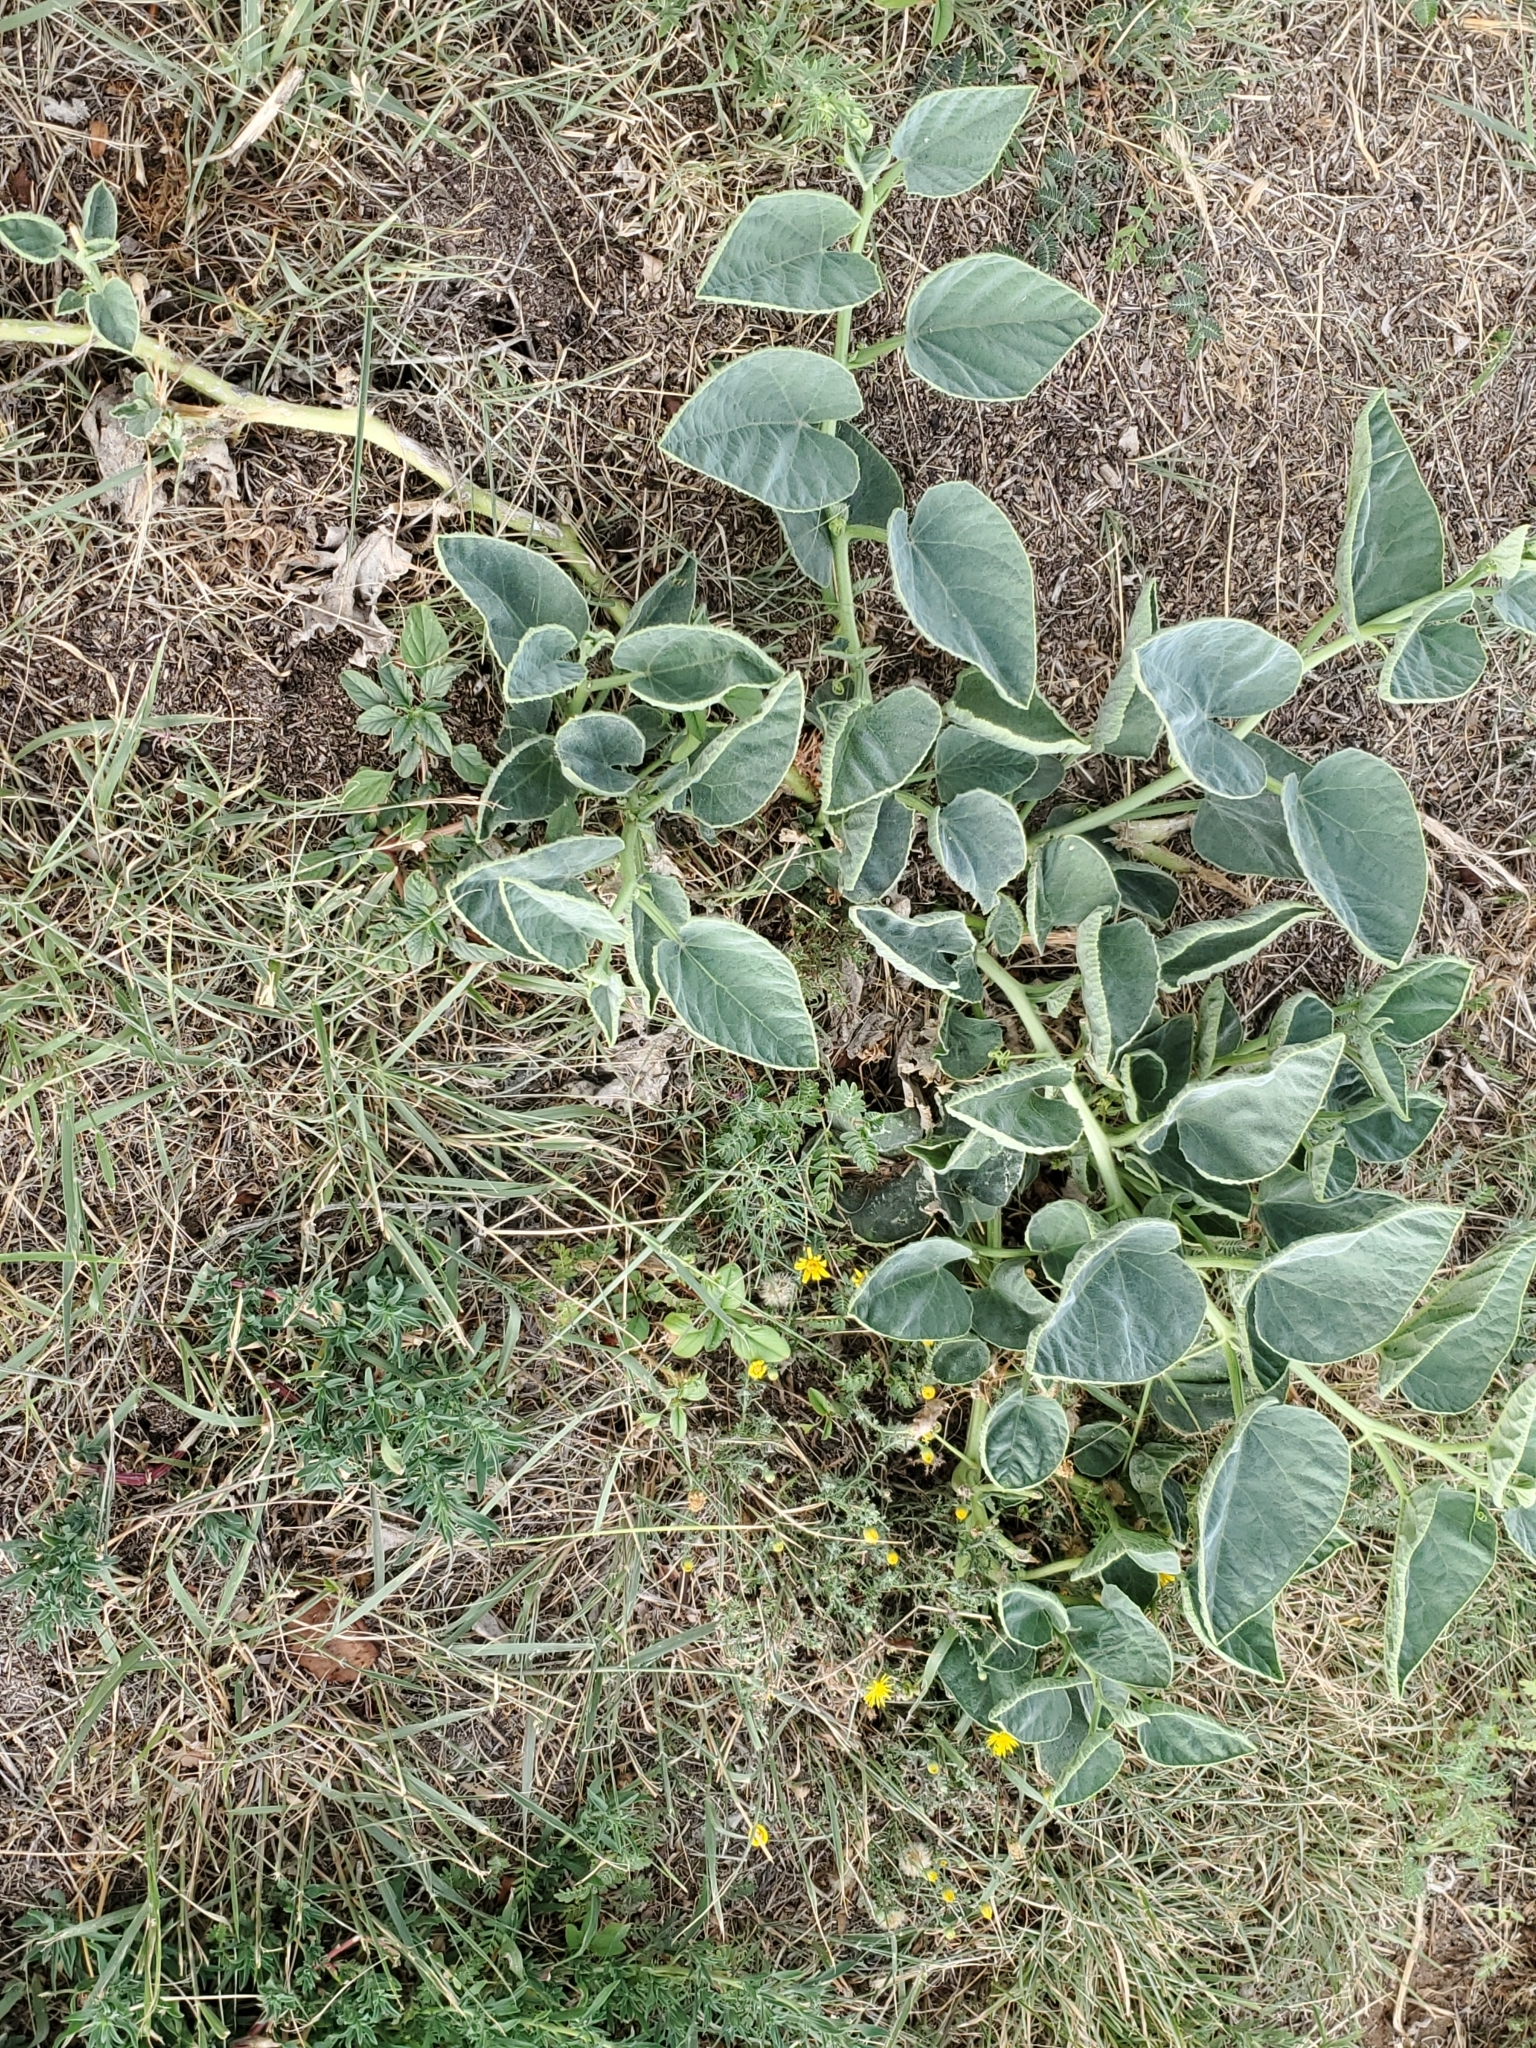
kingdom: Plantae
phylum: Tracheophyta
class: Magnoliopsida
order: Cucurbitales
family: Cucurbitaceae
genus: Cucurbita
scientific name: Cucurbita foetidissima
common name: Buffalo gourd
